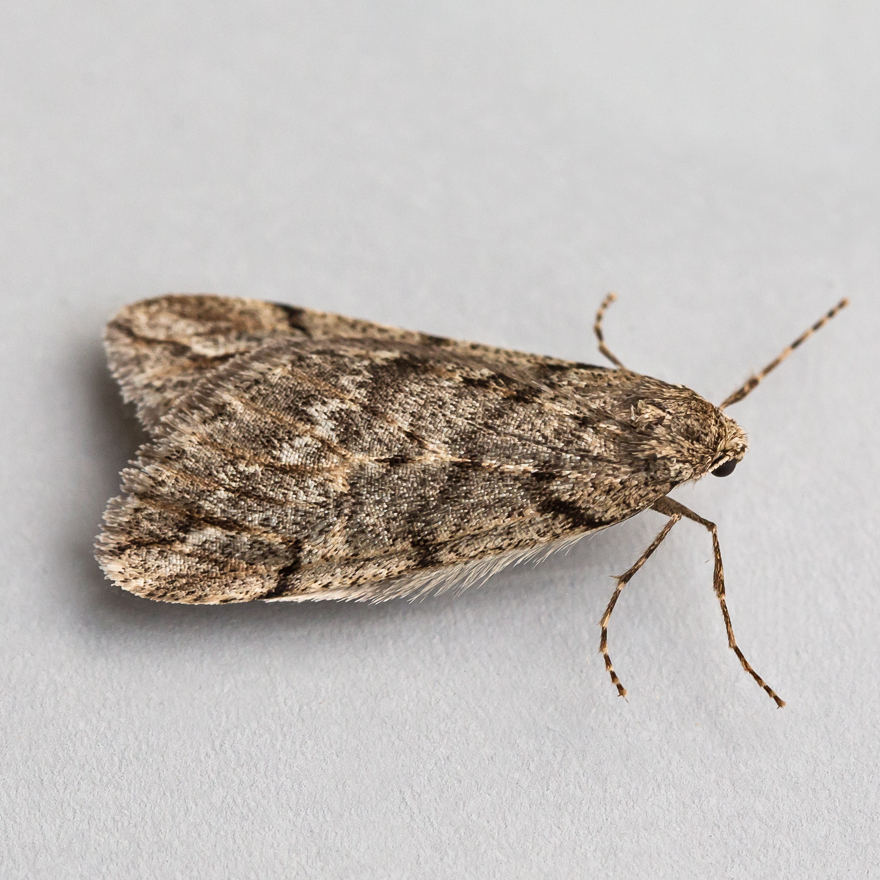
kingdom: Animalia
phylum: Arthropoda
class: Insecta
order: Lepidoptera
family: Geometridae
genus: Paleacrita
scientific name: Paleacrita vernata
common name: Spring cankerworm
